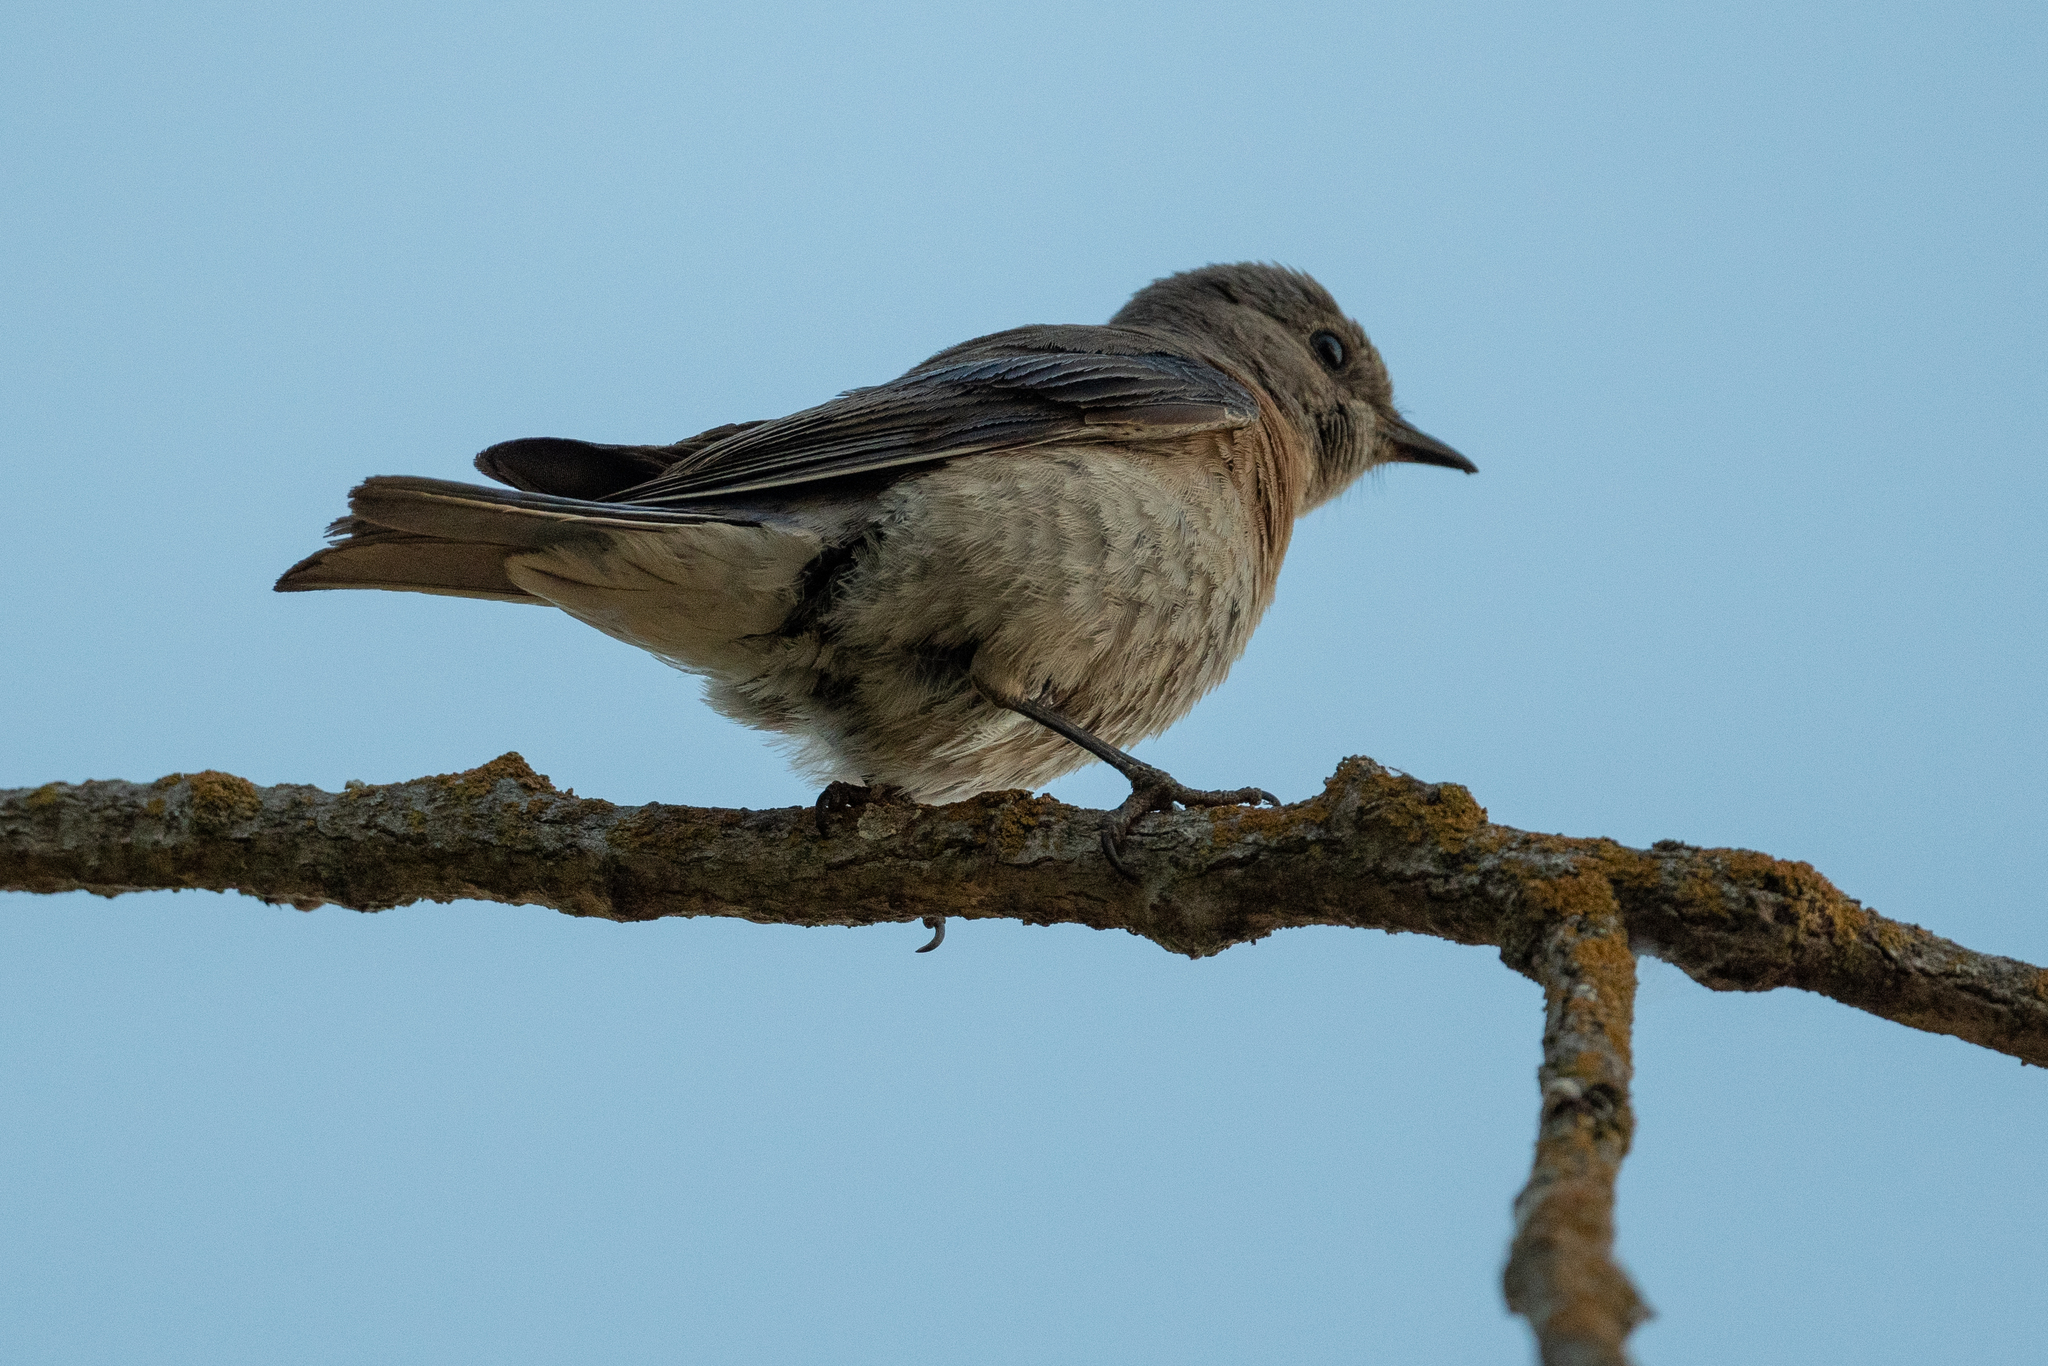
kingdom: Animalia
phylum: Chordata
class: Aves
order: Passeriformes
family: Turdidae
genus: Sialia
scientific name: Sialia mexicana
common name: Western bluebird
